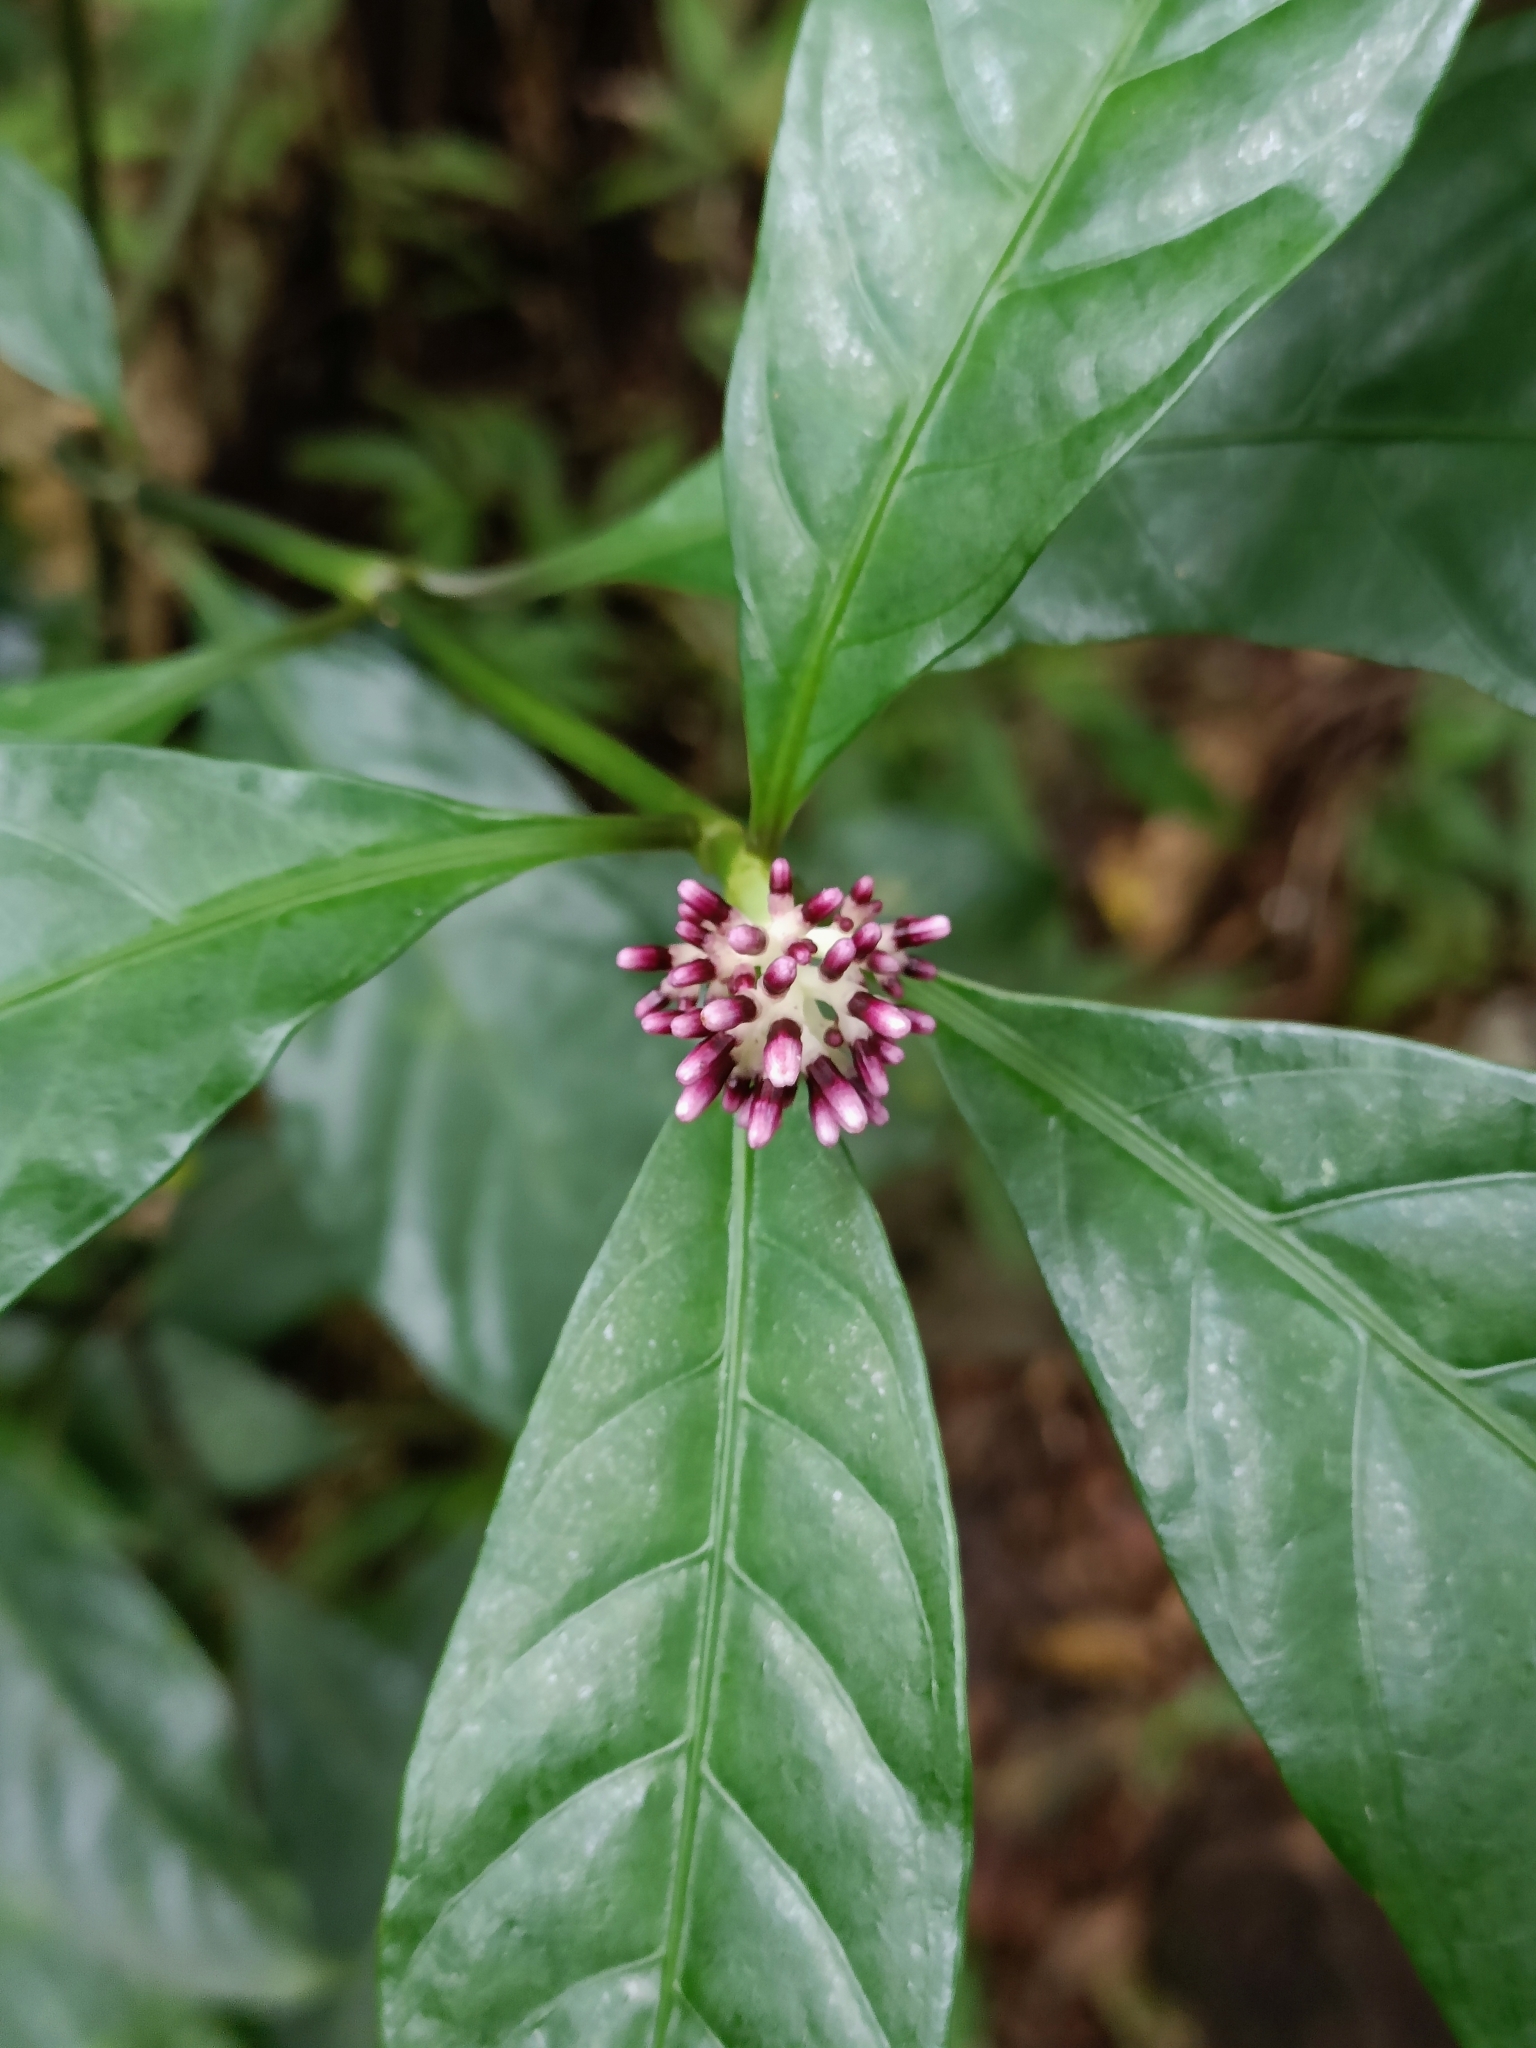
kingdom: Plantae
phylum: Tracheophyta
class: Magnoliopsida
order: Gentianales
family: Rubiaceae
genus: Chassalia
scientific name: Chassalia curviflora
